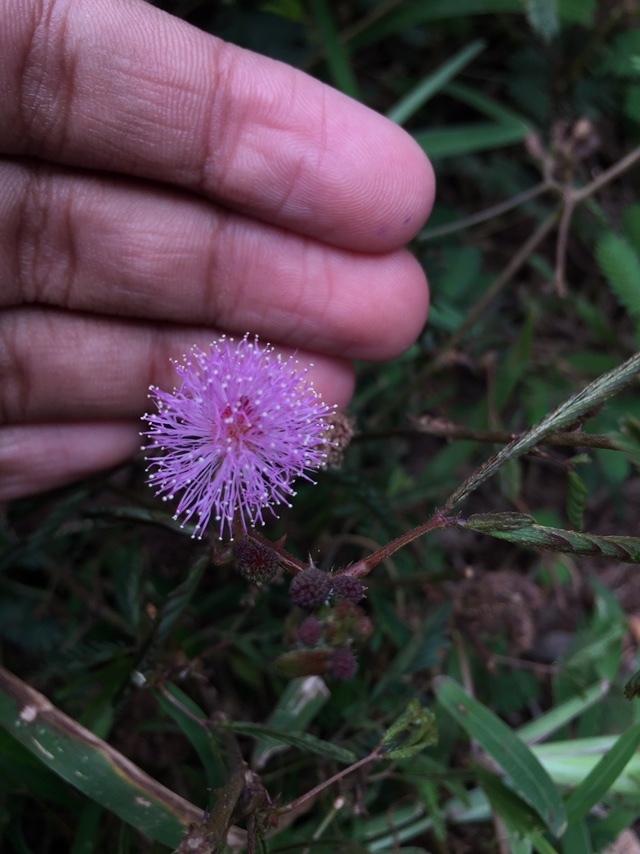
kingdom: Plantae
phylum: Tracheophyta
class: Magnoliopsida
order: Fabales
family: Fabaceae
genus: Mimosa
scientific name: Mimosa pudica
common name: Sensitive plant
